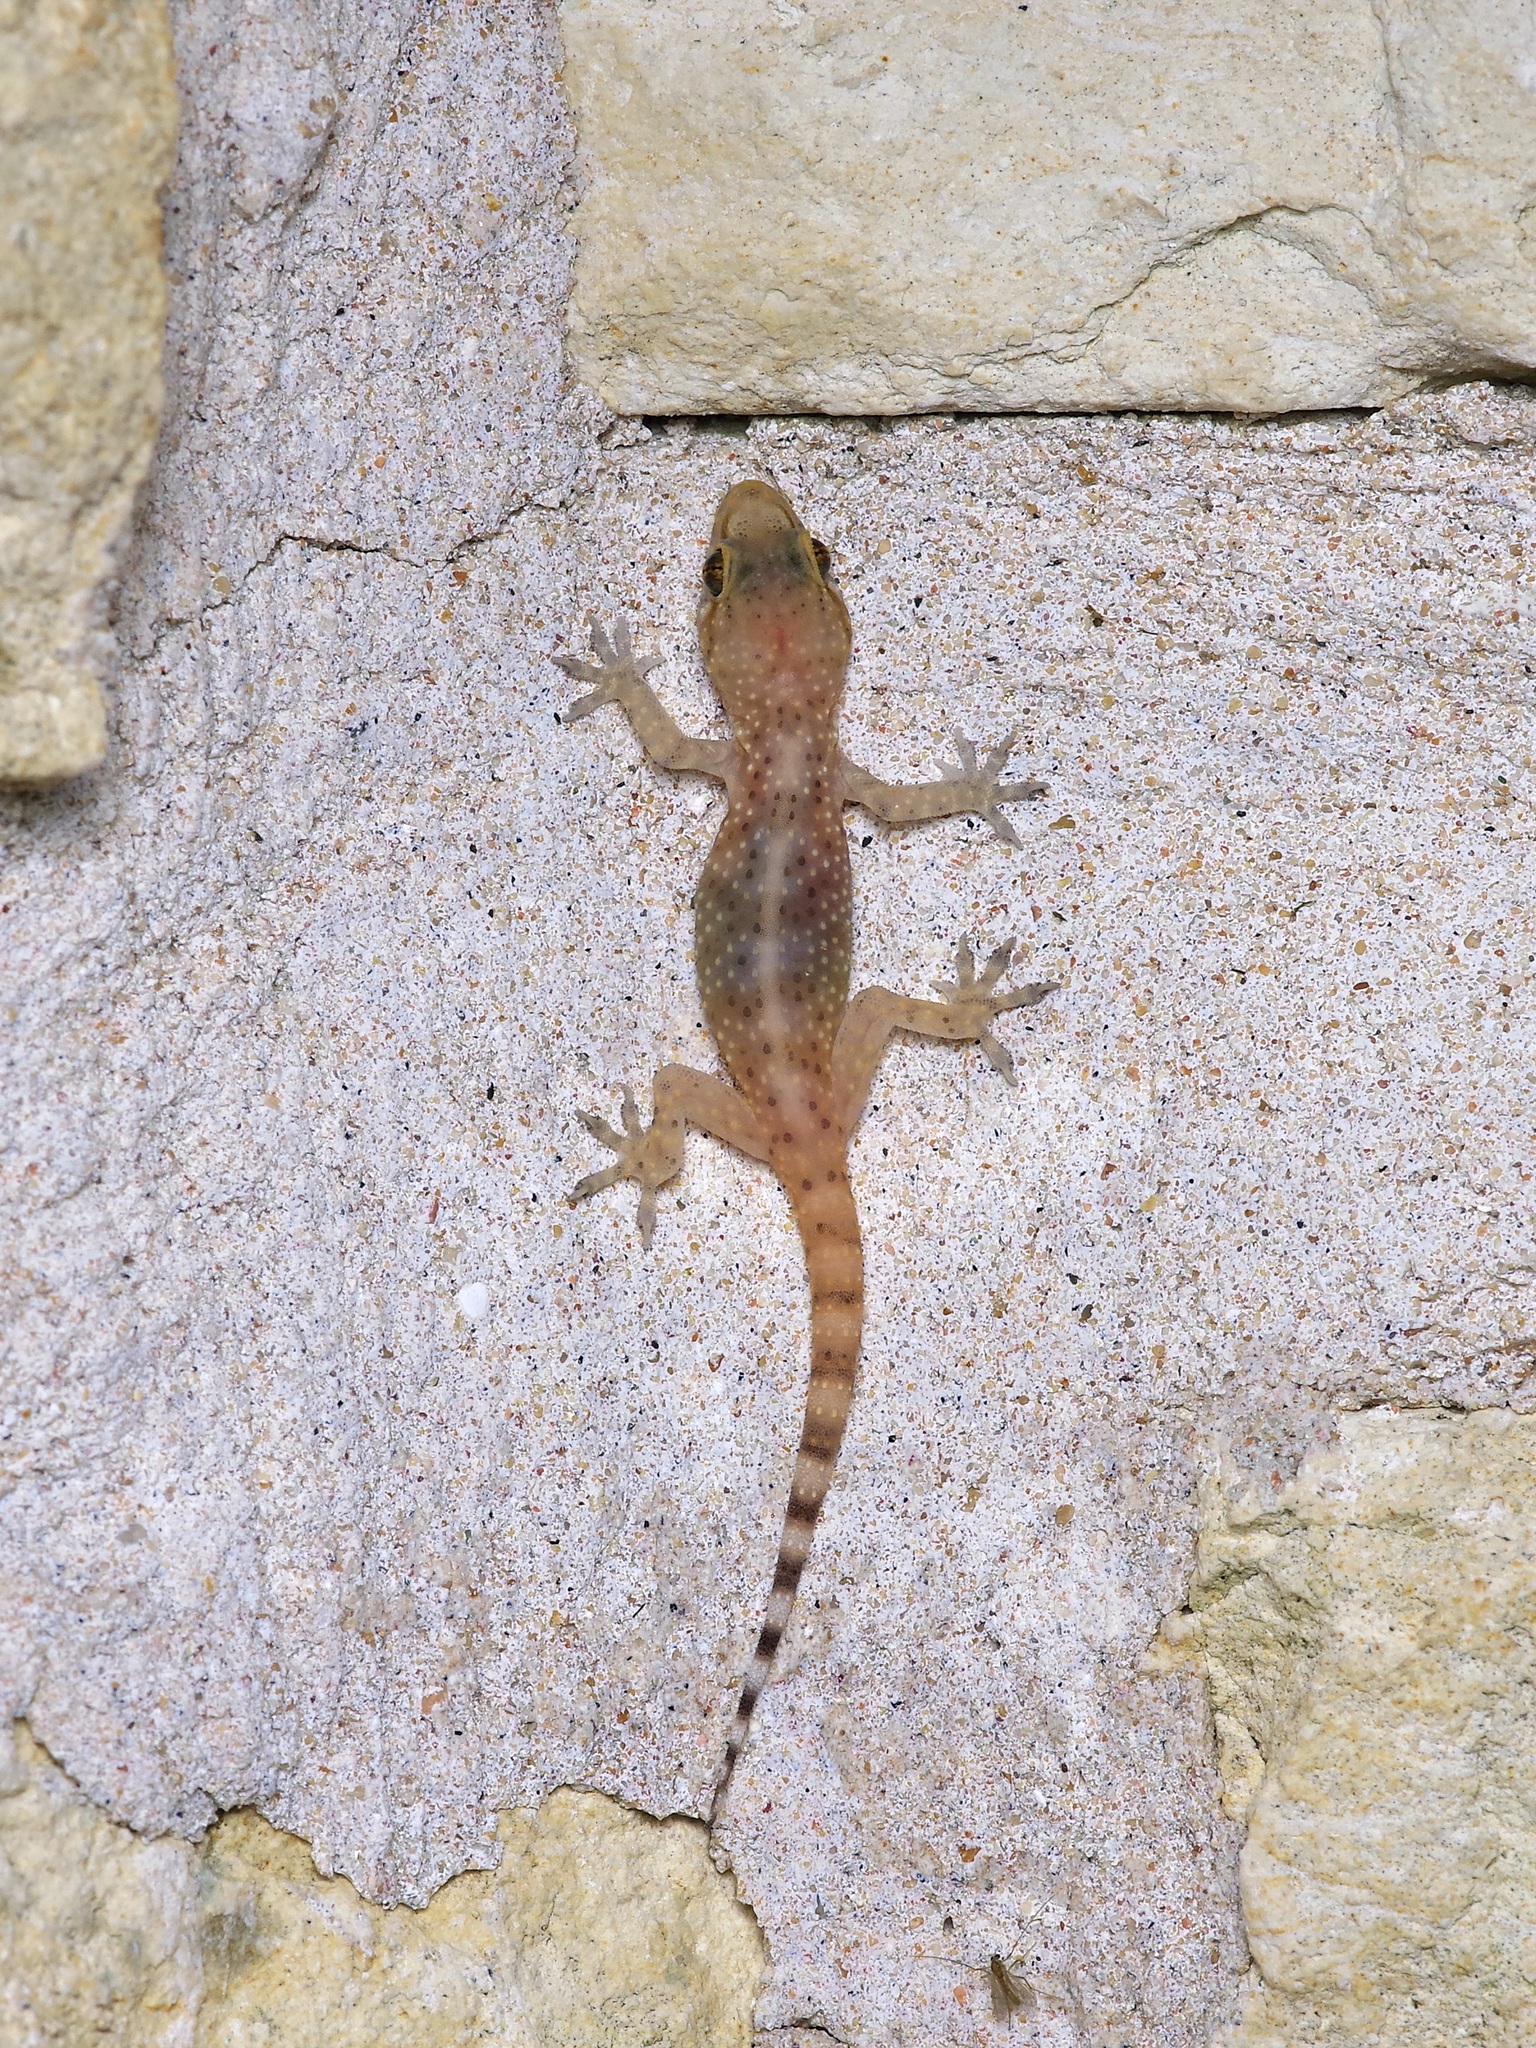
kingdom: Animalia
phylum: Chordata
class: Squamata
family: Gekkonidae
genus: Hemidactylus
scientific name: Hemidactylus turcicus
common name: Turkish gecko
